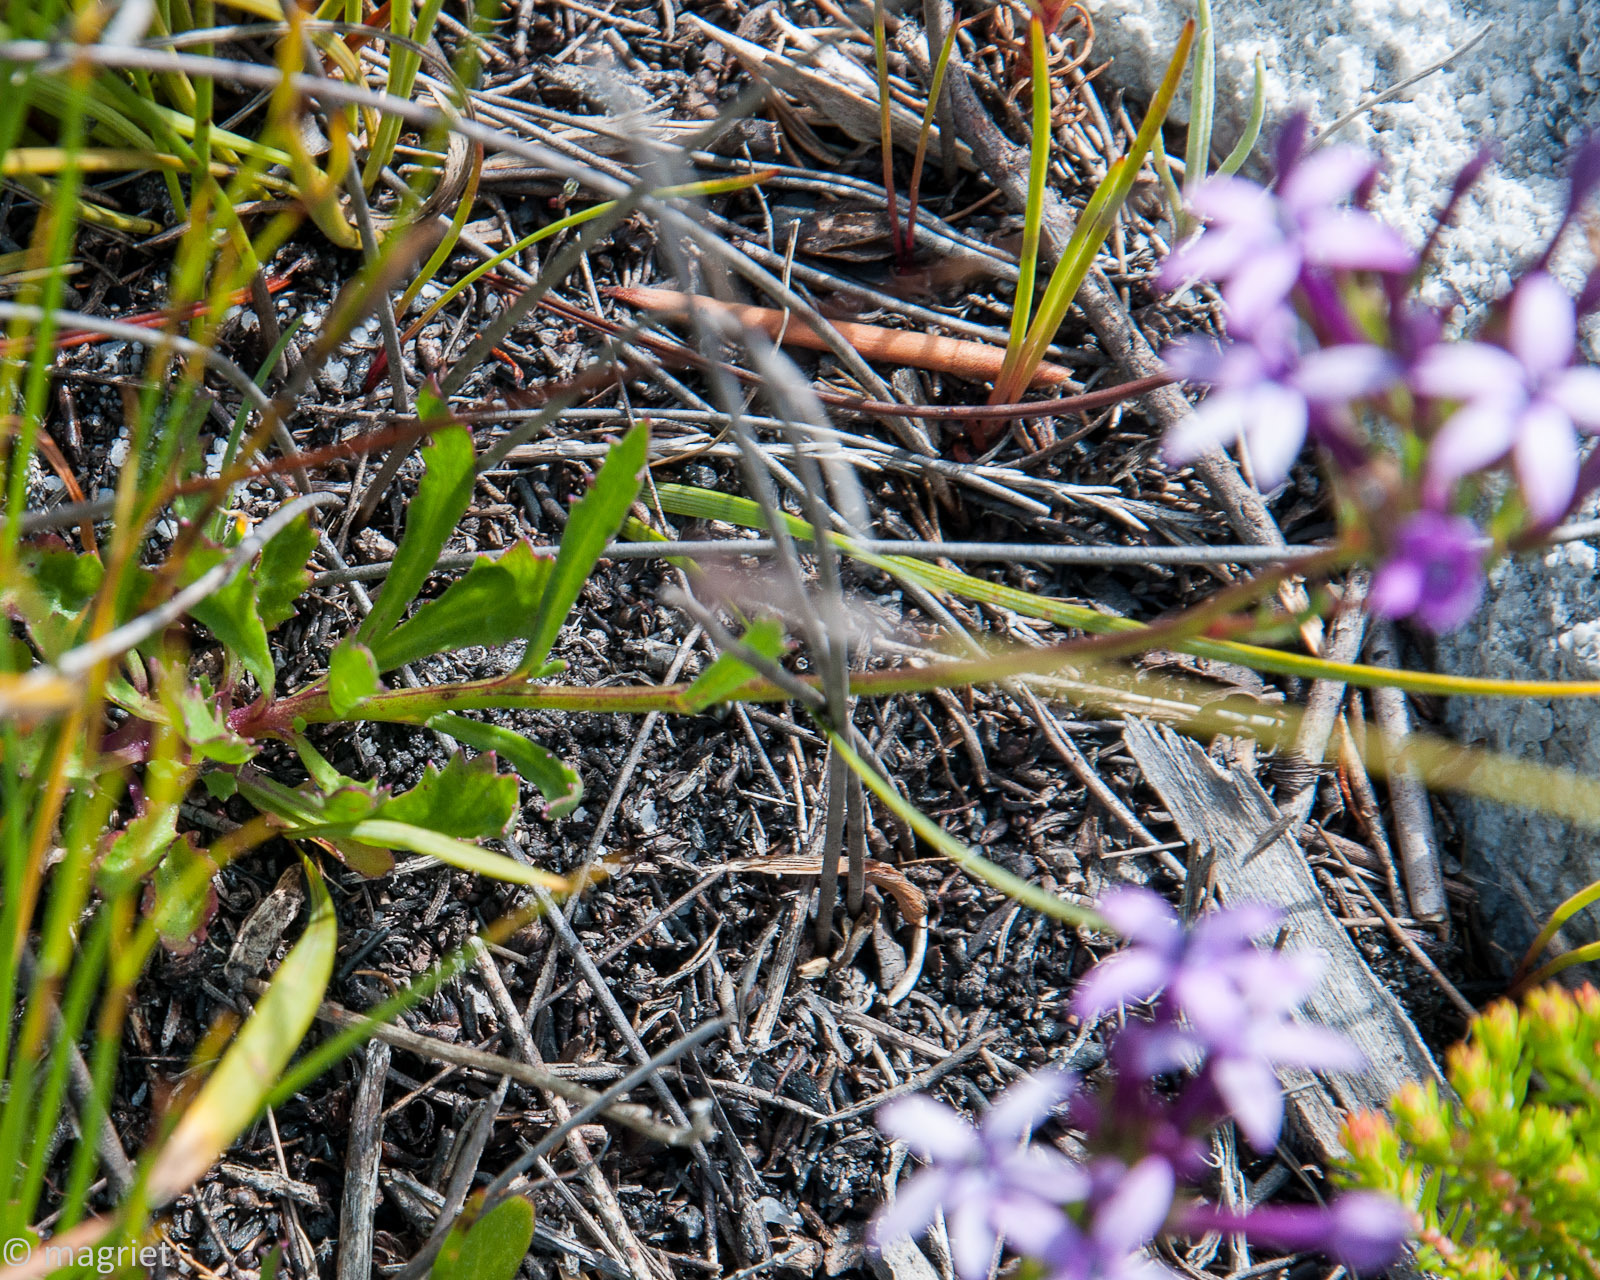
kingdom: Plantae
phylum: Tracheophyta
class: Magnoliopsida
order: Asterales
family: Campanulaceae
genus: Lobelia
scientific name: Lobelia stenosiphon
